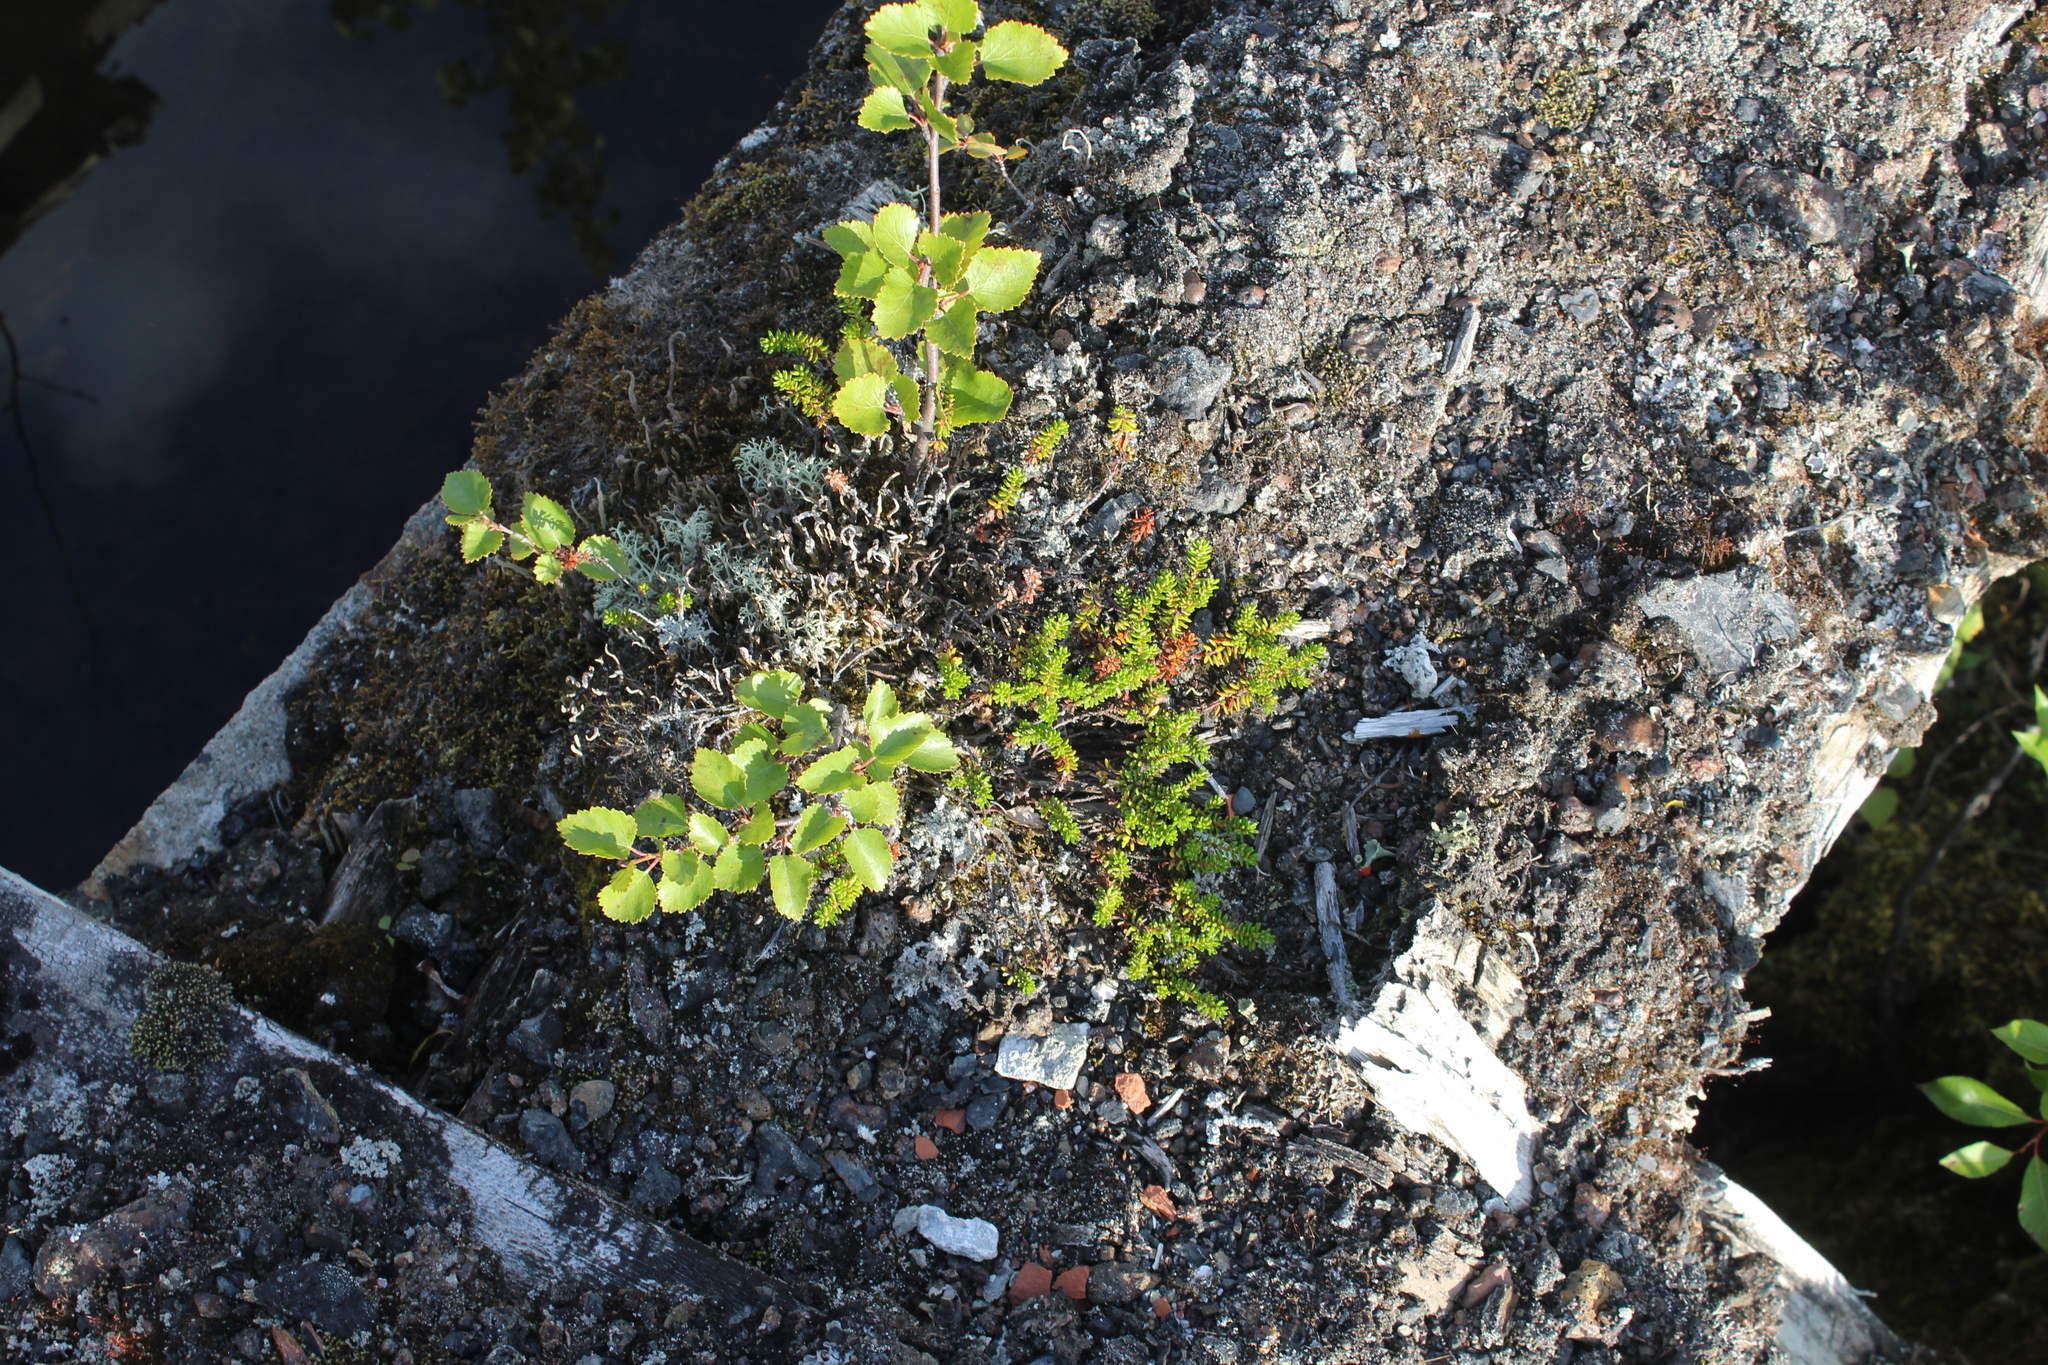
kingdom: Plantae
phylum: Tracheophyta
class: Magnoliopsida
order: Ericales
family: Ericaceae
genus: Empetrum
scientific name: Empetrum nigrum
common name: Black crowberry
